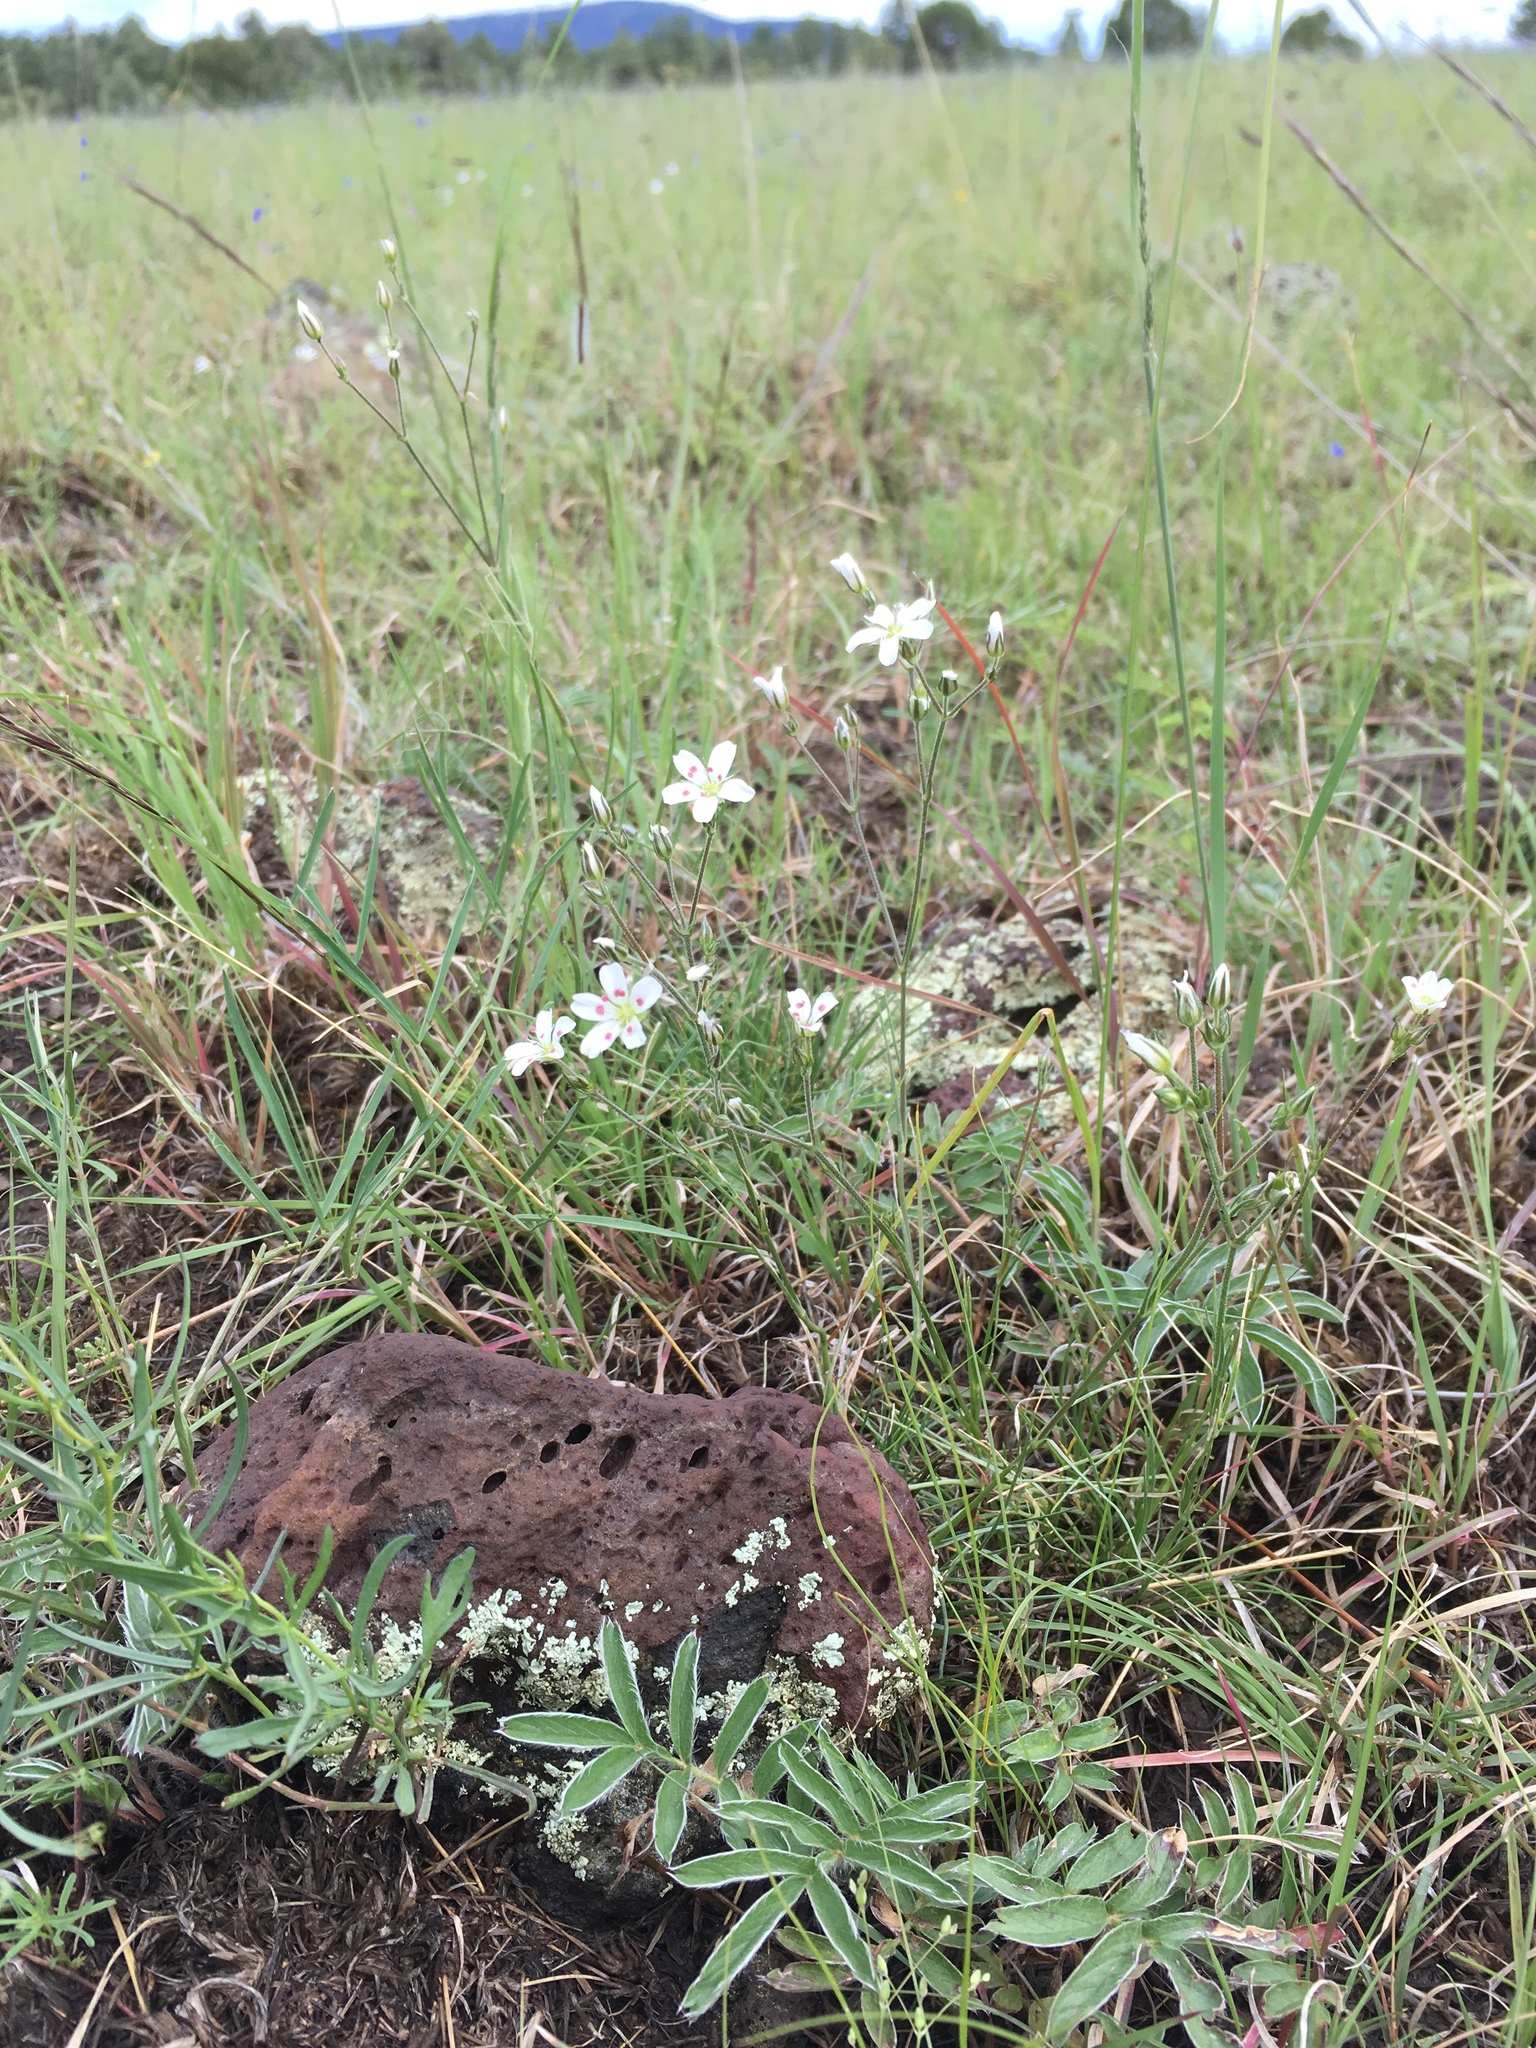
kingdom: Plantae
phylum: Tracheophyta
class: Magnoliopsida
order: Caryophyllales
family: Caryophyllaceae
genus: Eremogone
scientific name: Eremogone fendleri
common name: Fendler's sandwort
